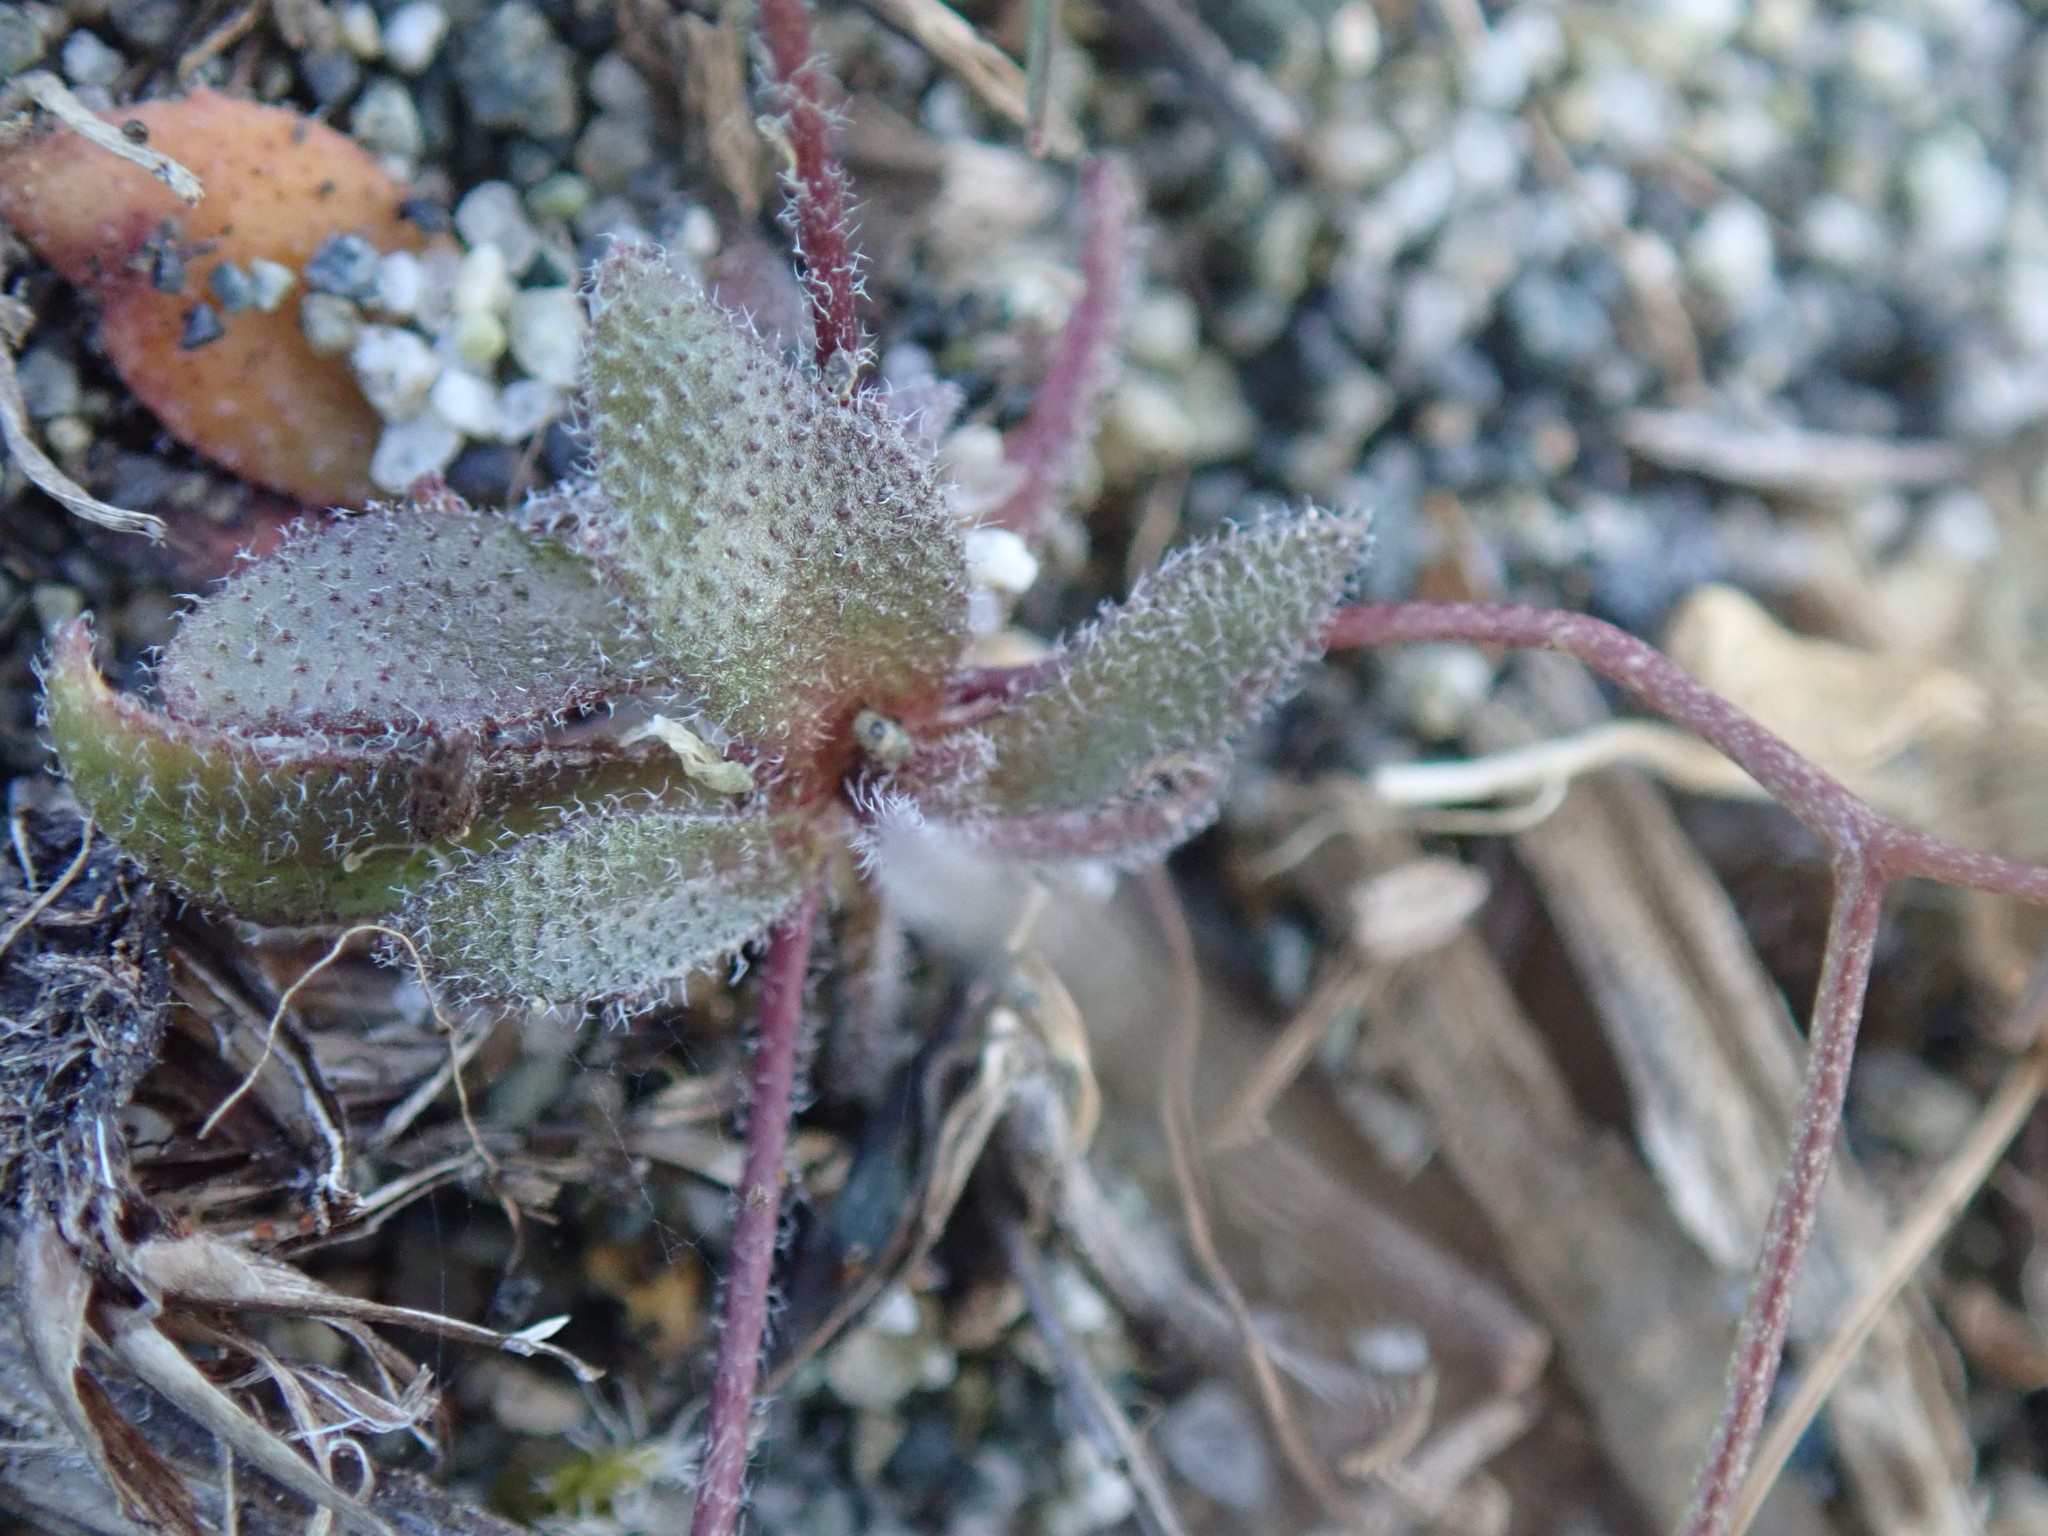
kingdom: Plantae
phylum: Tracheophyta
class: Magnoliopsida
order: Brassicales
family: Brassicaceae
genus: Draba
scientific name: Draba verna
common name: Spring draba
